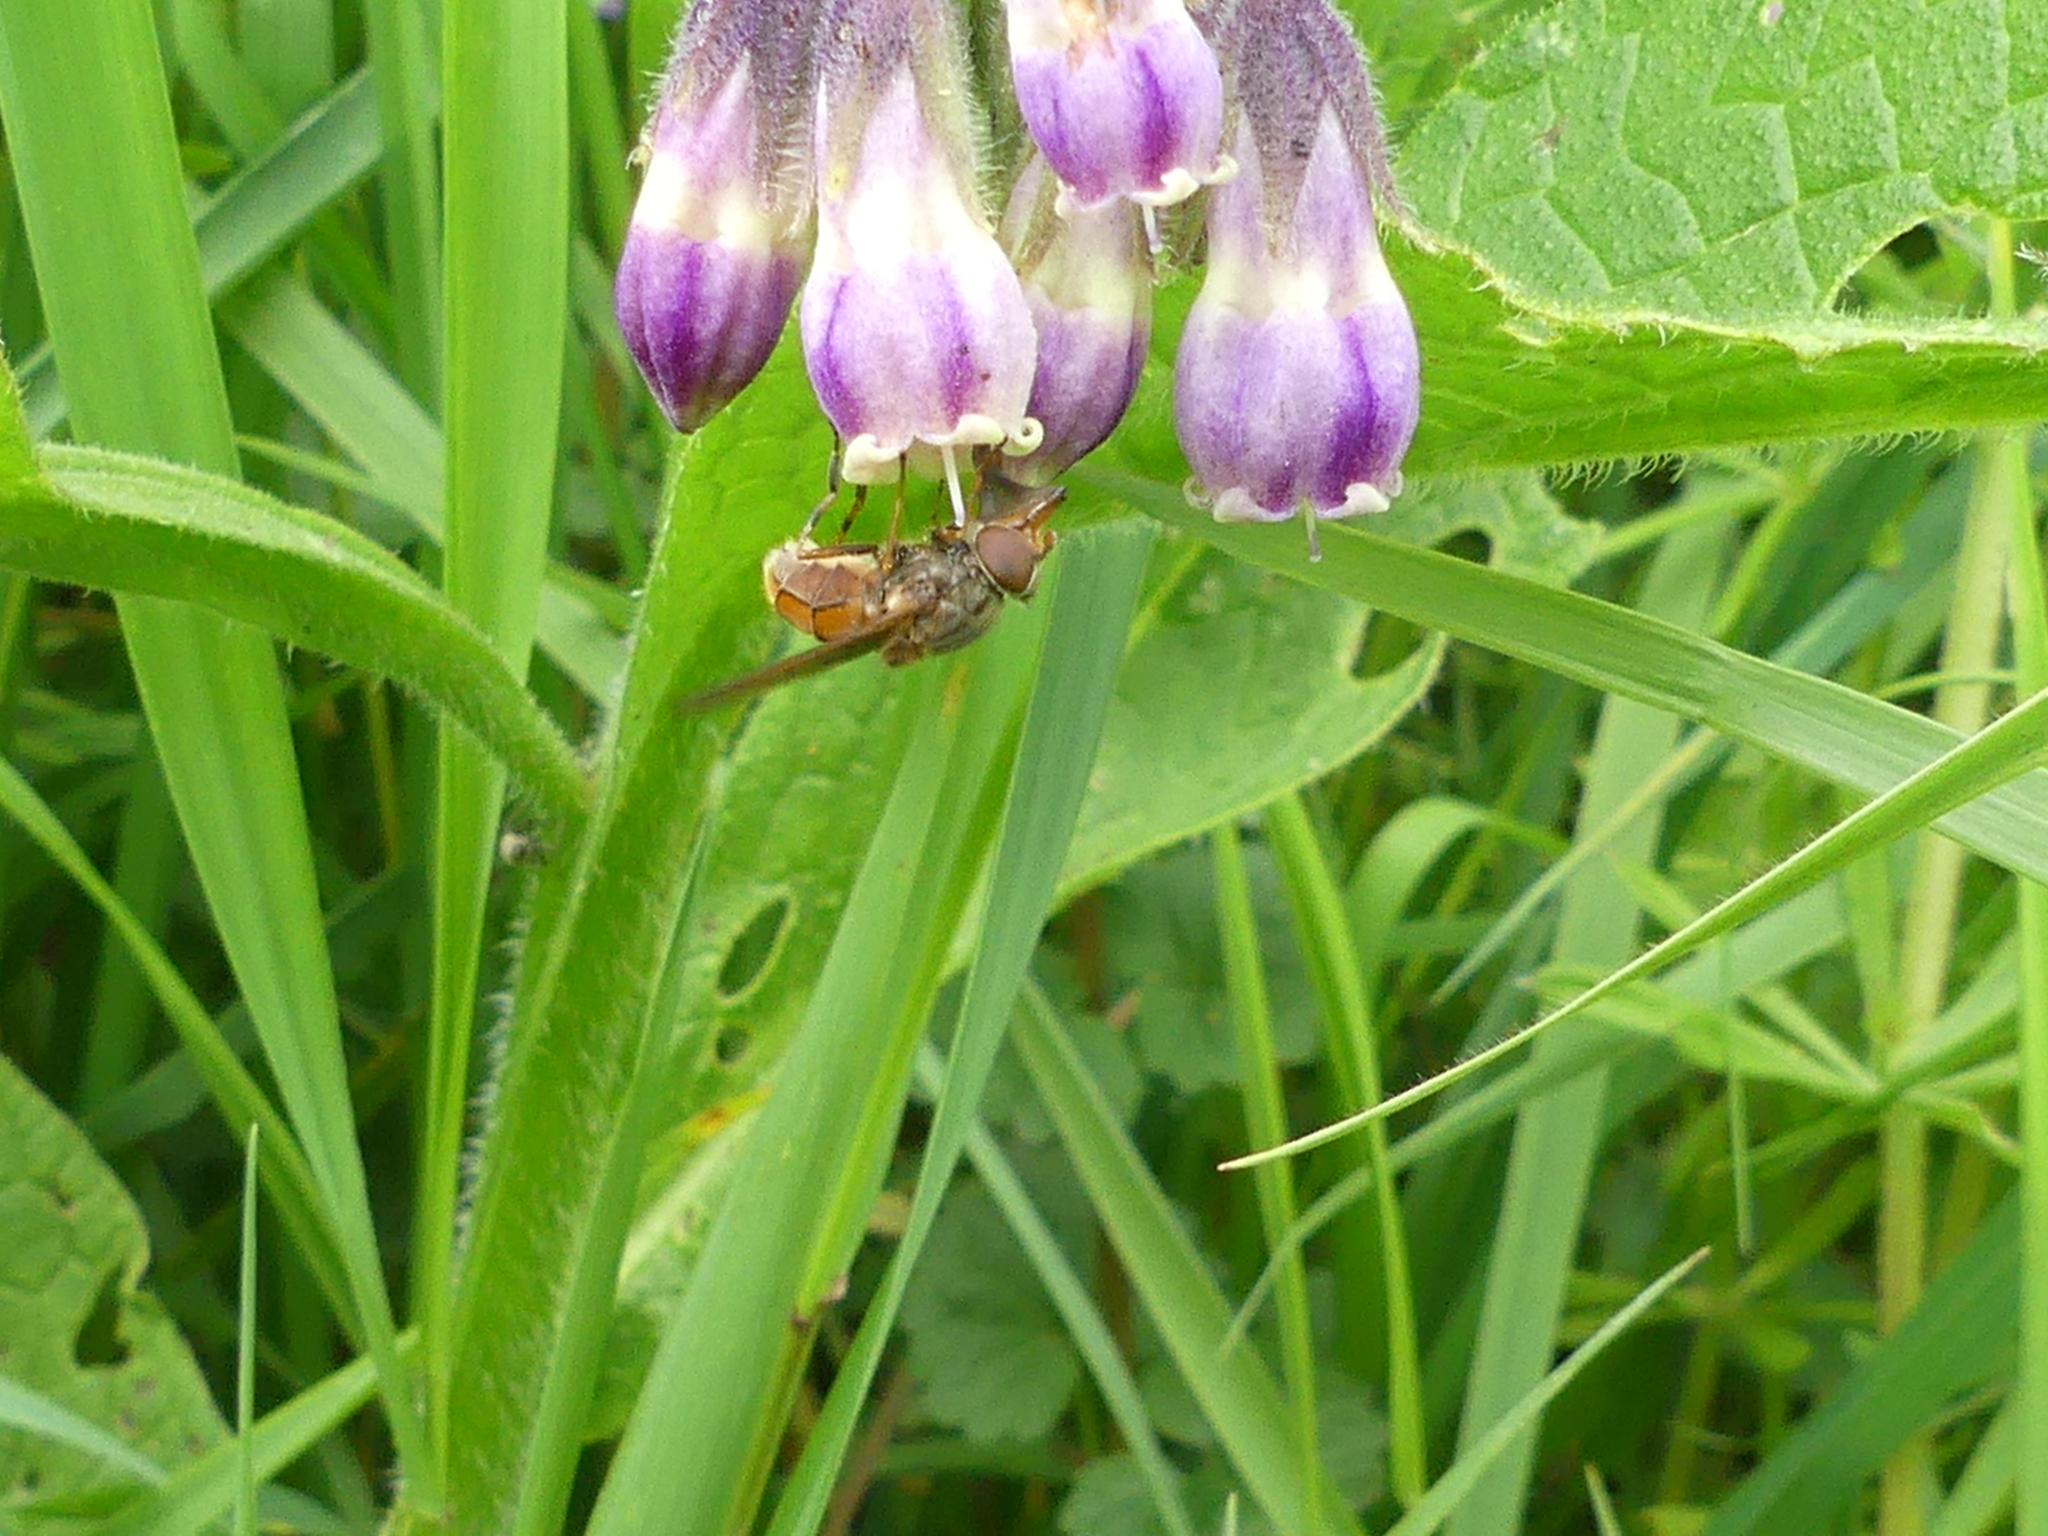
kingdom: Animalia
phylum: Arthropoda
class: Insecta
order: Diptera
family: Syrphidae
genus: Rhingia
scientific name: Rhingia campestris
